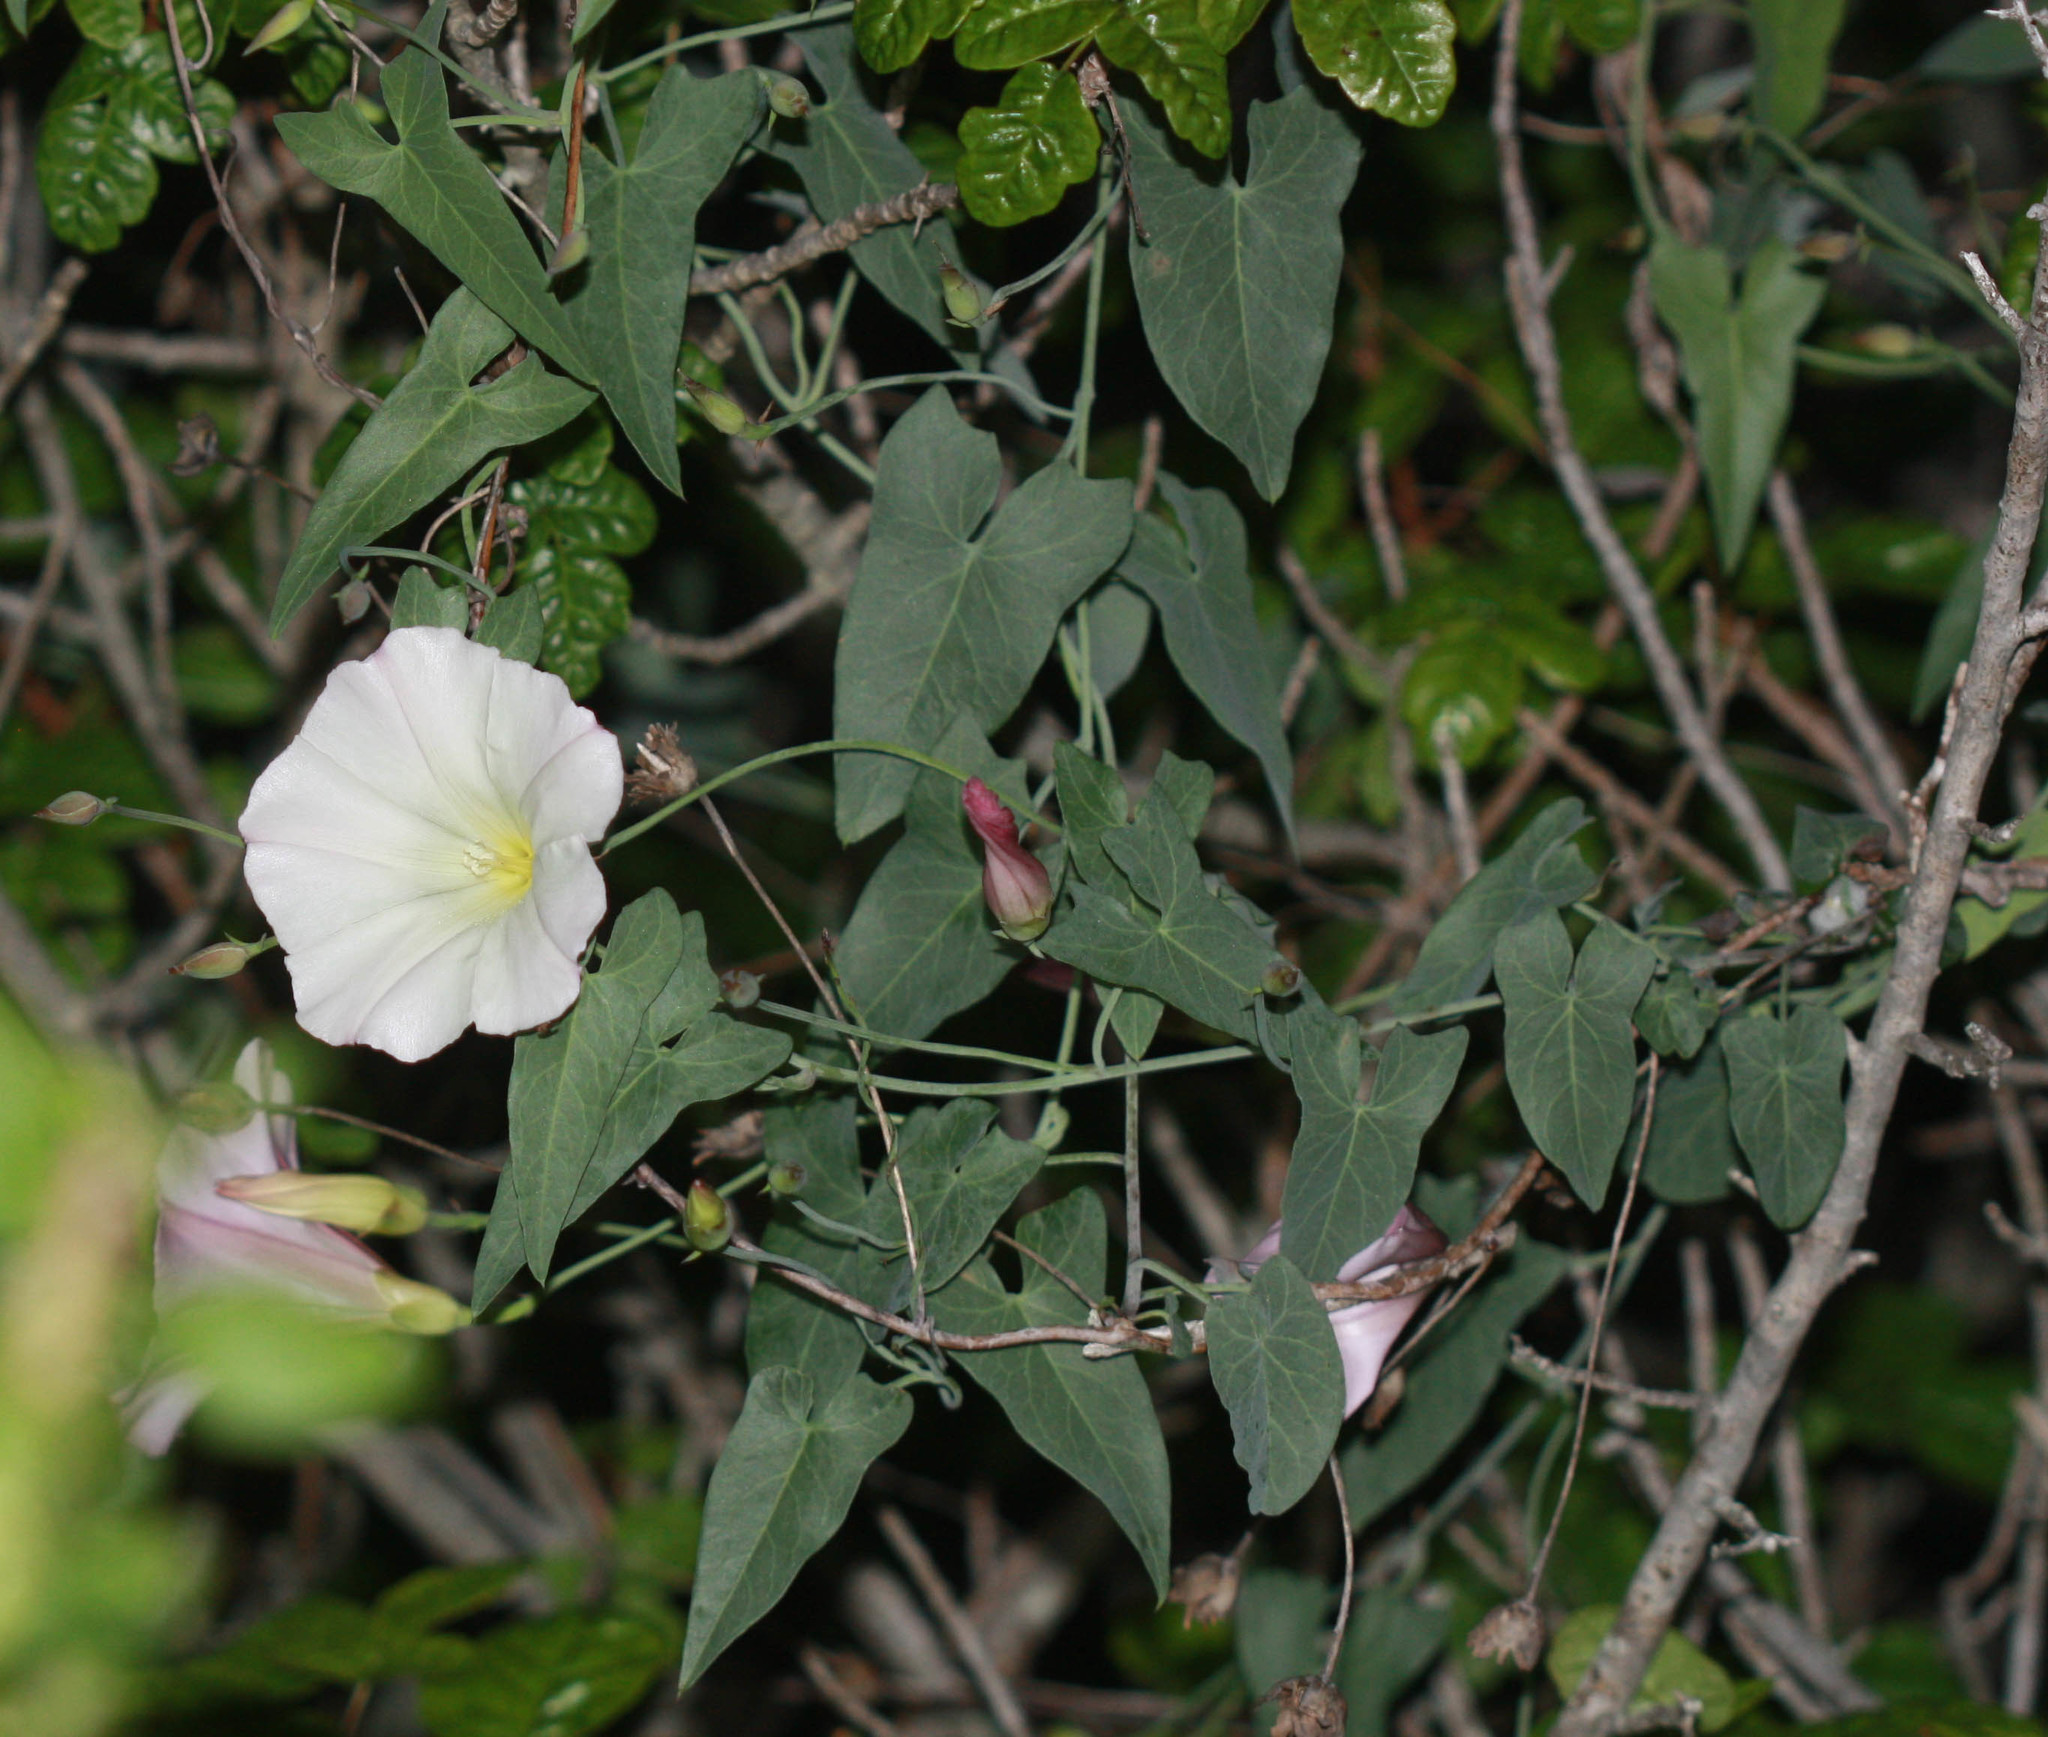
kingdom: Plantae
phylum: Tracheophyta
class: Magnoliopsida
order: Solanales
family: Convolvulaceae
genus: Calystegia
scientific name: Calystegia purpurata
